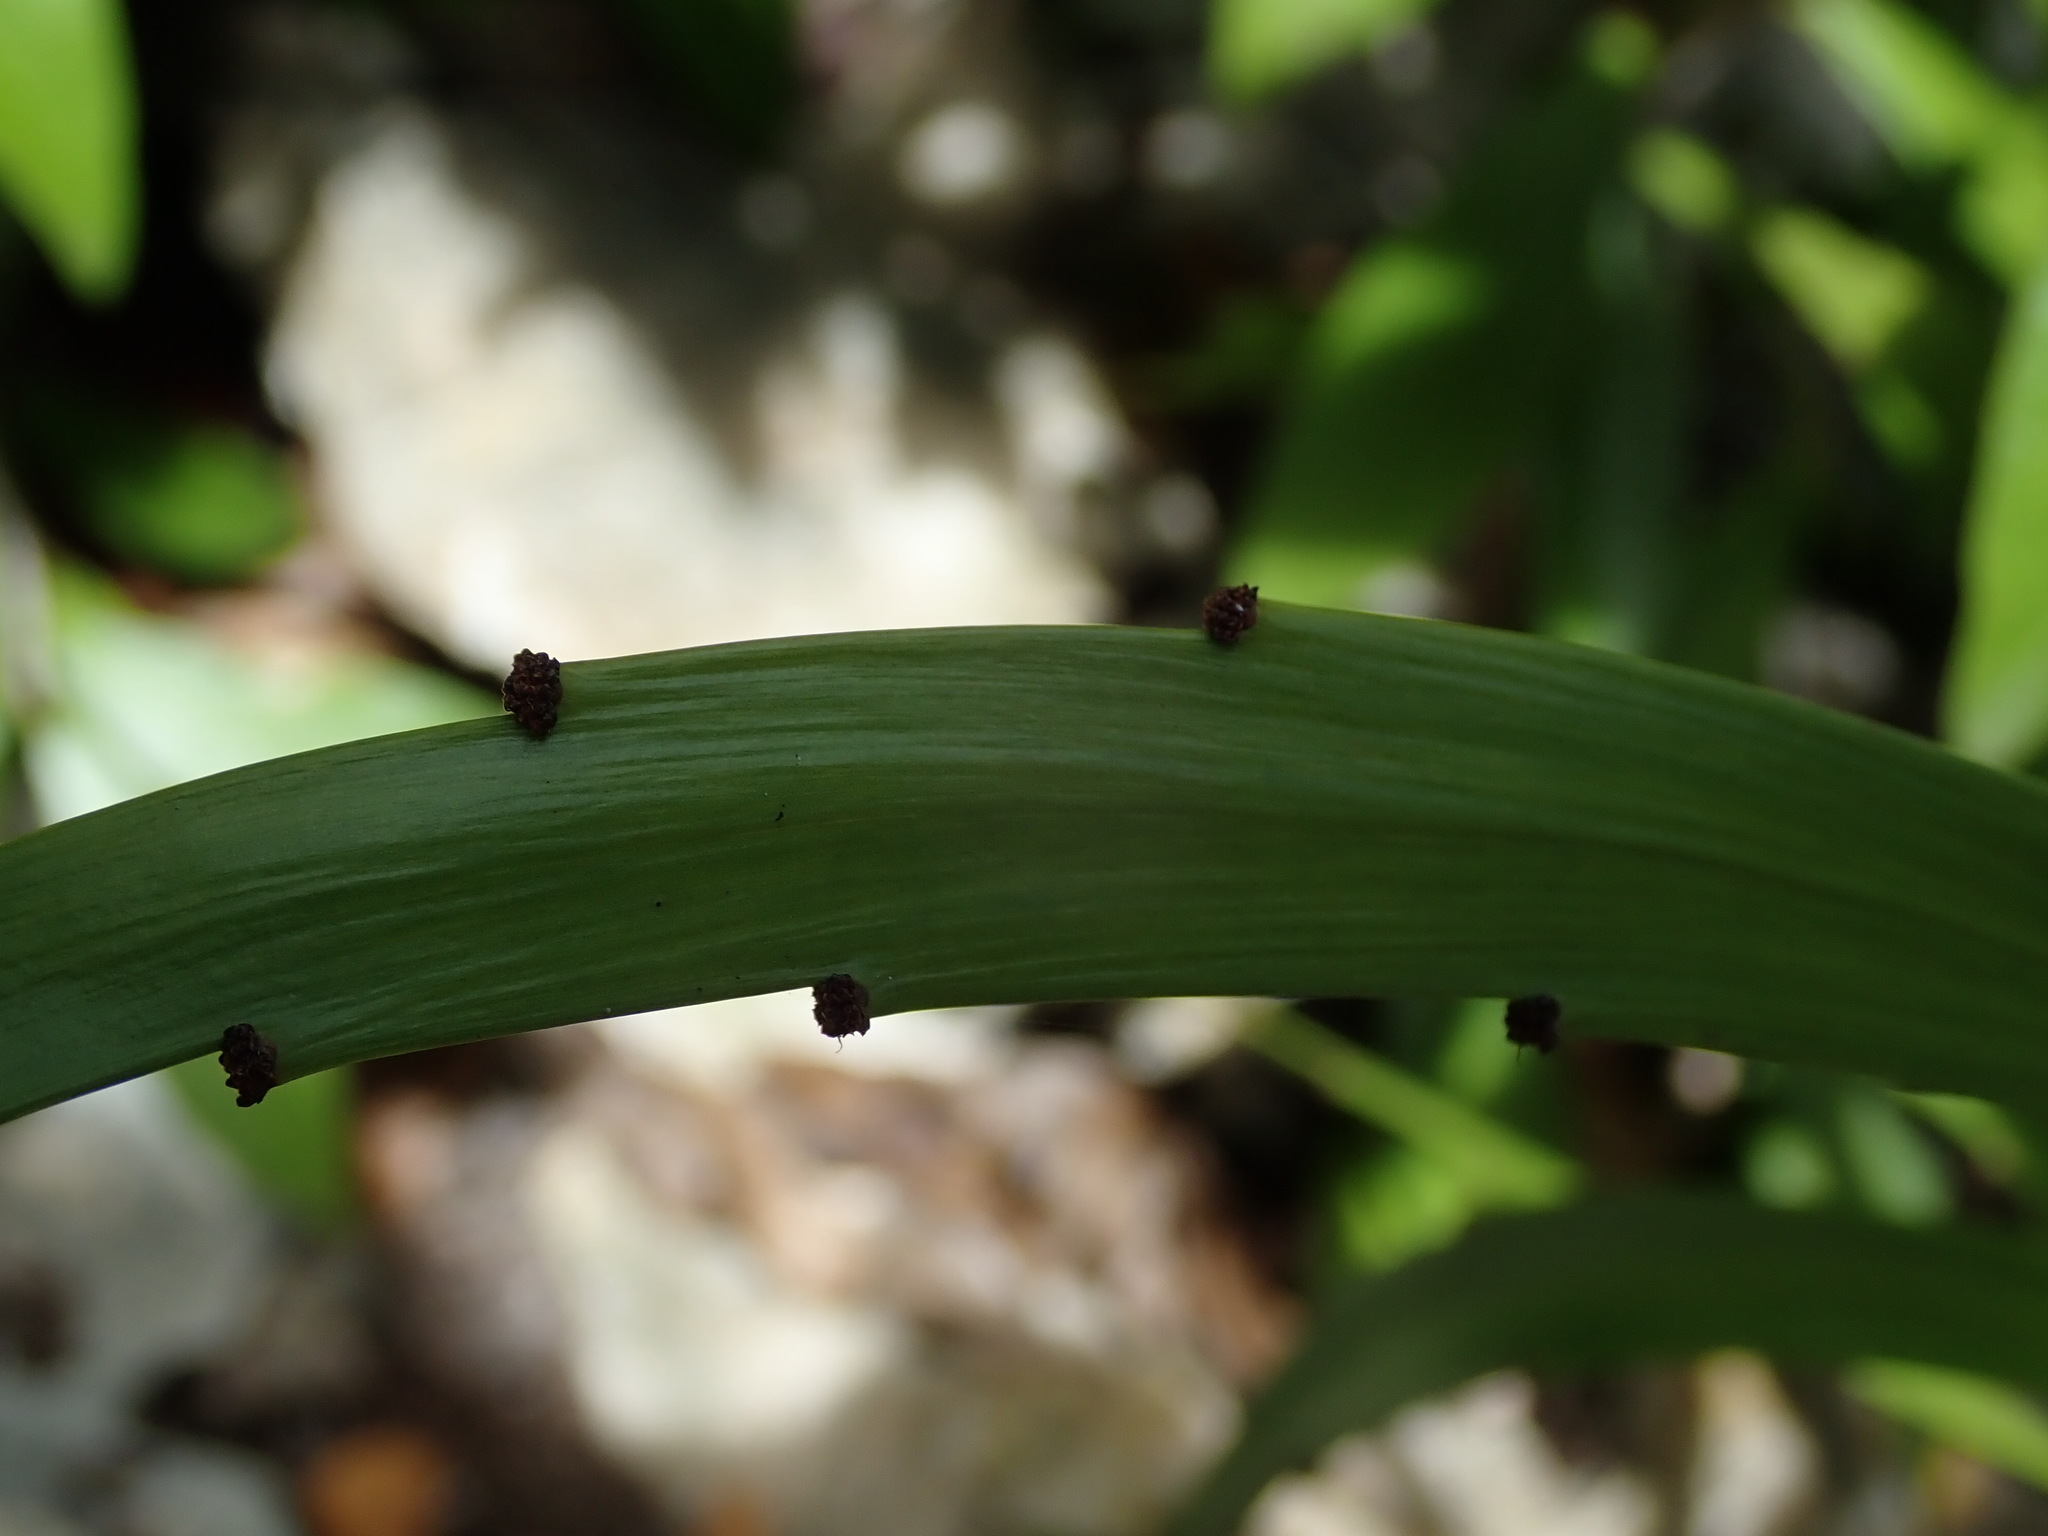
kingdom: Plantae
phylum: Tracheophyta
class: Magnoliopsida
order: Malpighiales
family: Phyllanthaceae
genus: Phyllanthus
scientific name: Phyllanthus epiphyllanthus
